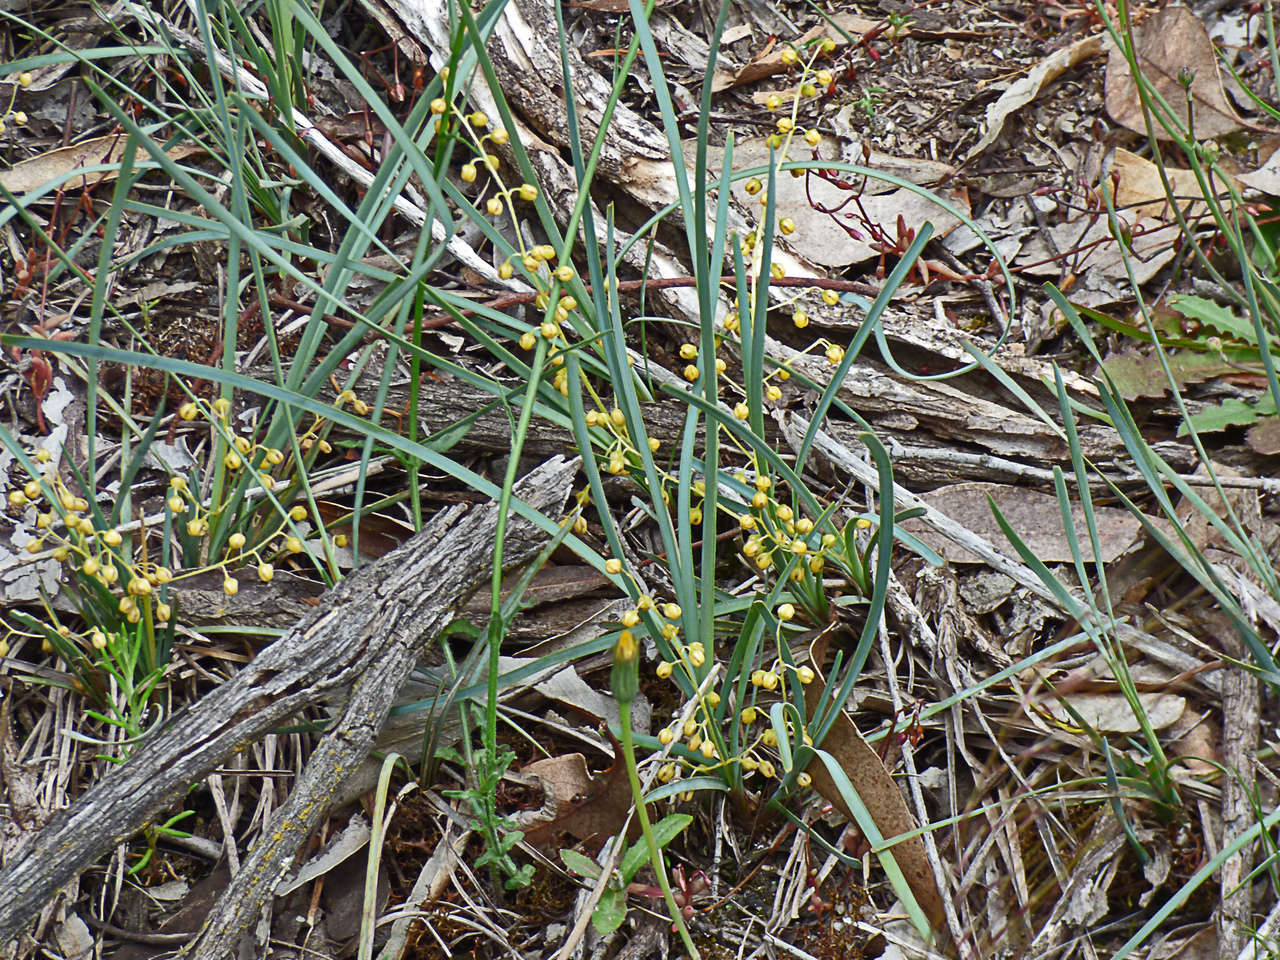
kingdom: Plantae
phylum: Tracheophyta
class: Liliopsida
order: Asparagales
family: Asparagaceae
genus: Lomandra
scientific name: Lomandra filiformis
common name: Wattle mat-rush
